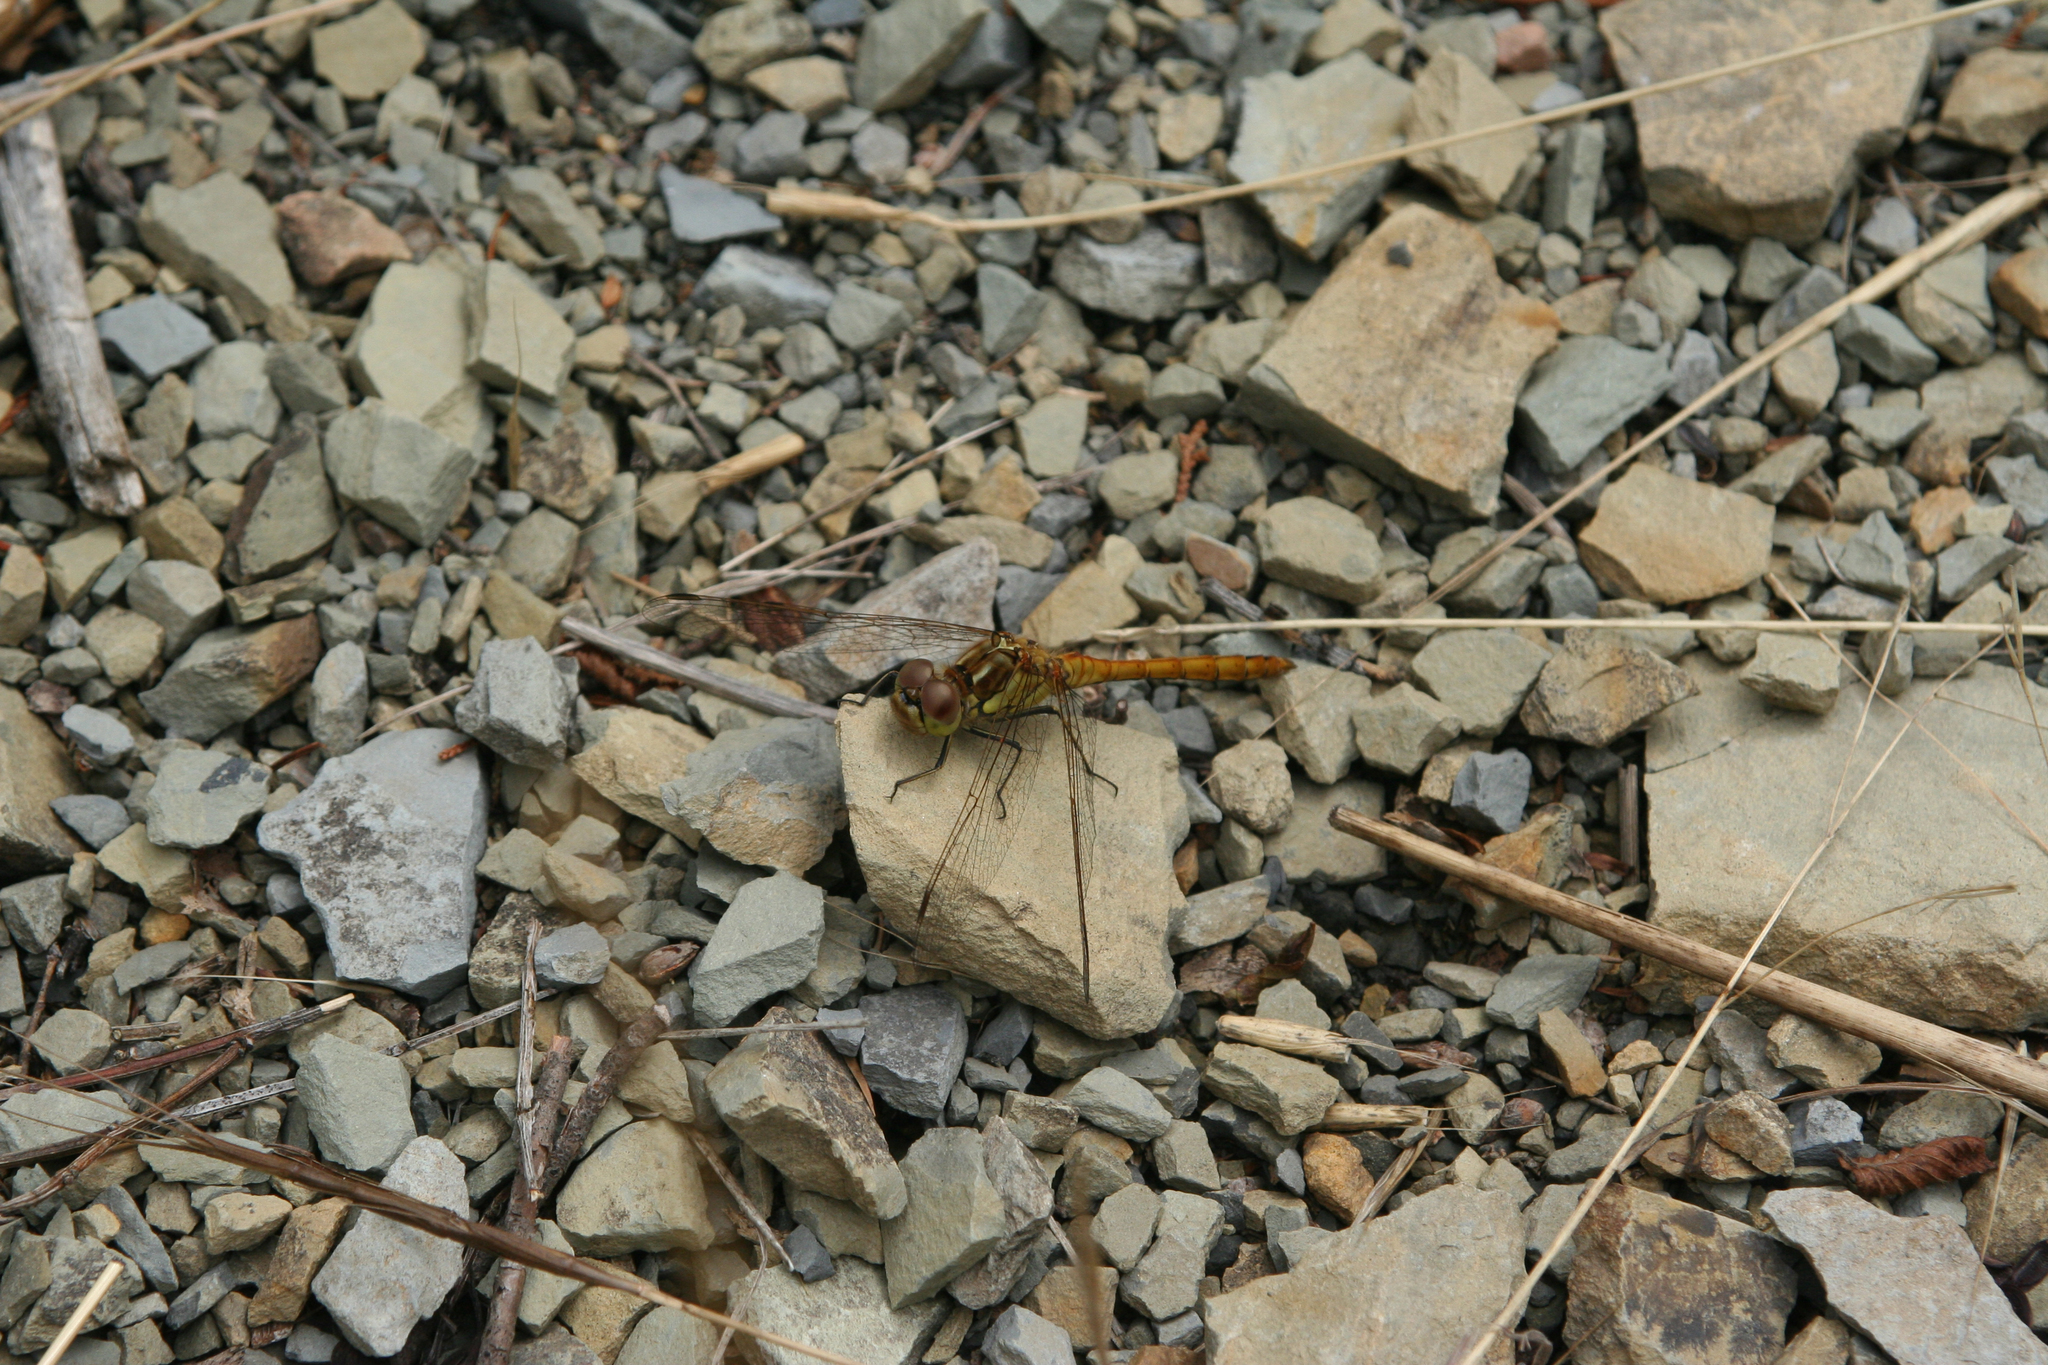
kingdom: Animalia
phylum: Arthropoda
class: Insecta
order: Odonata
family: Libellulidae
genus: Sympetrum
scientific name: Sympetrum vulgatum
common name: Vagrant darter
